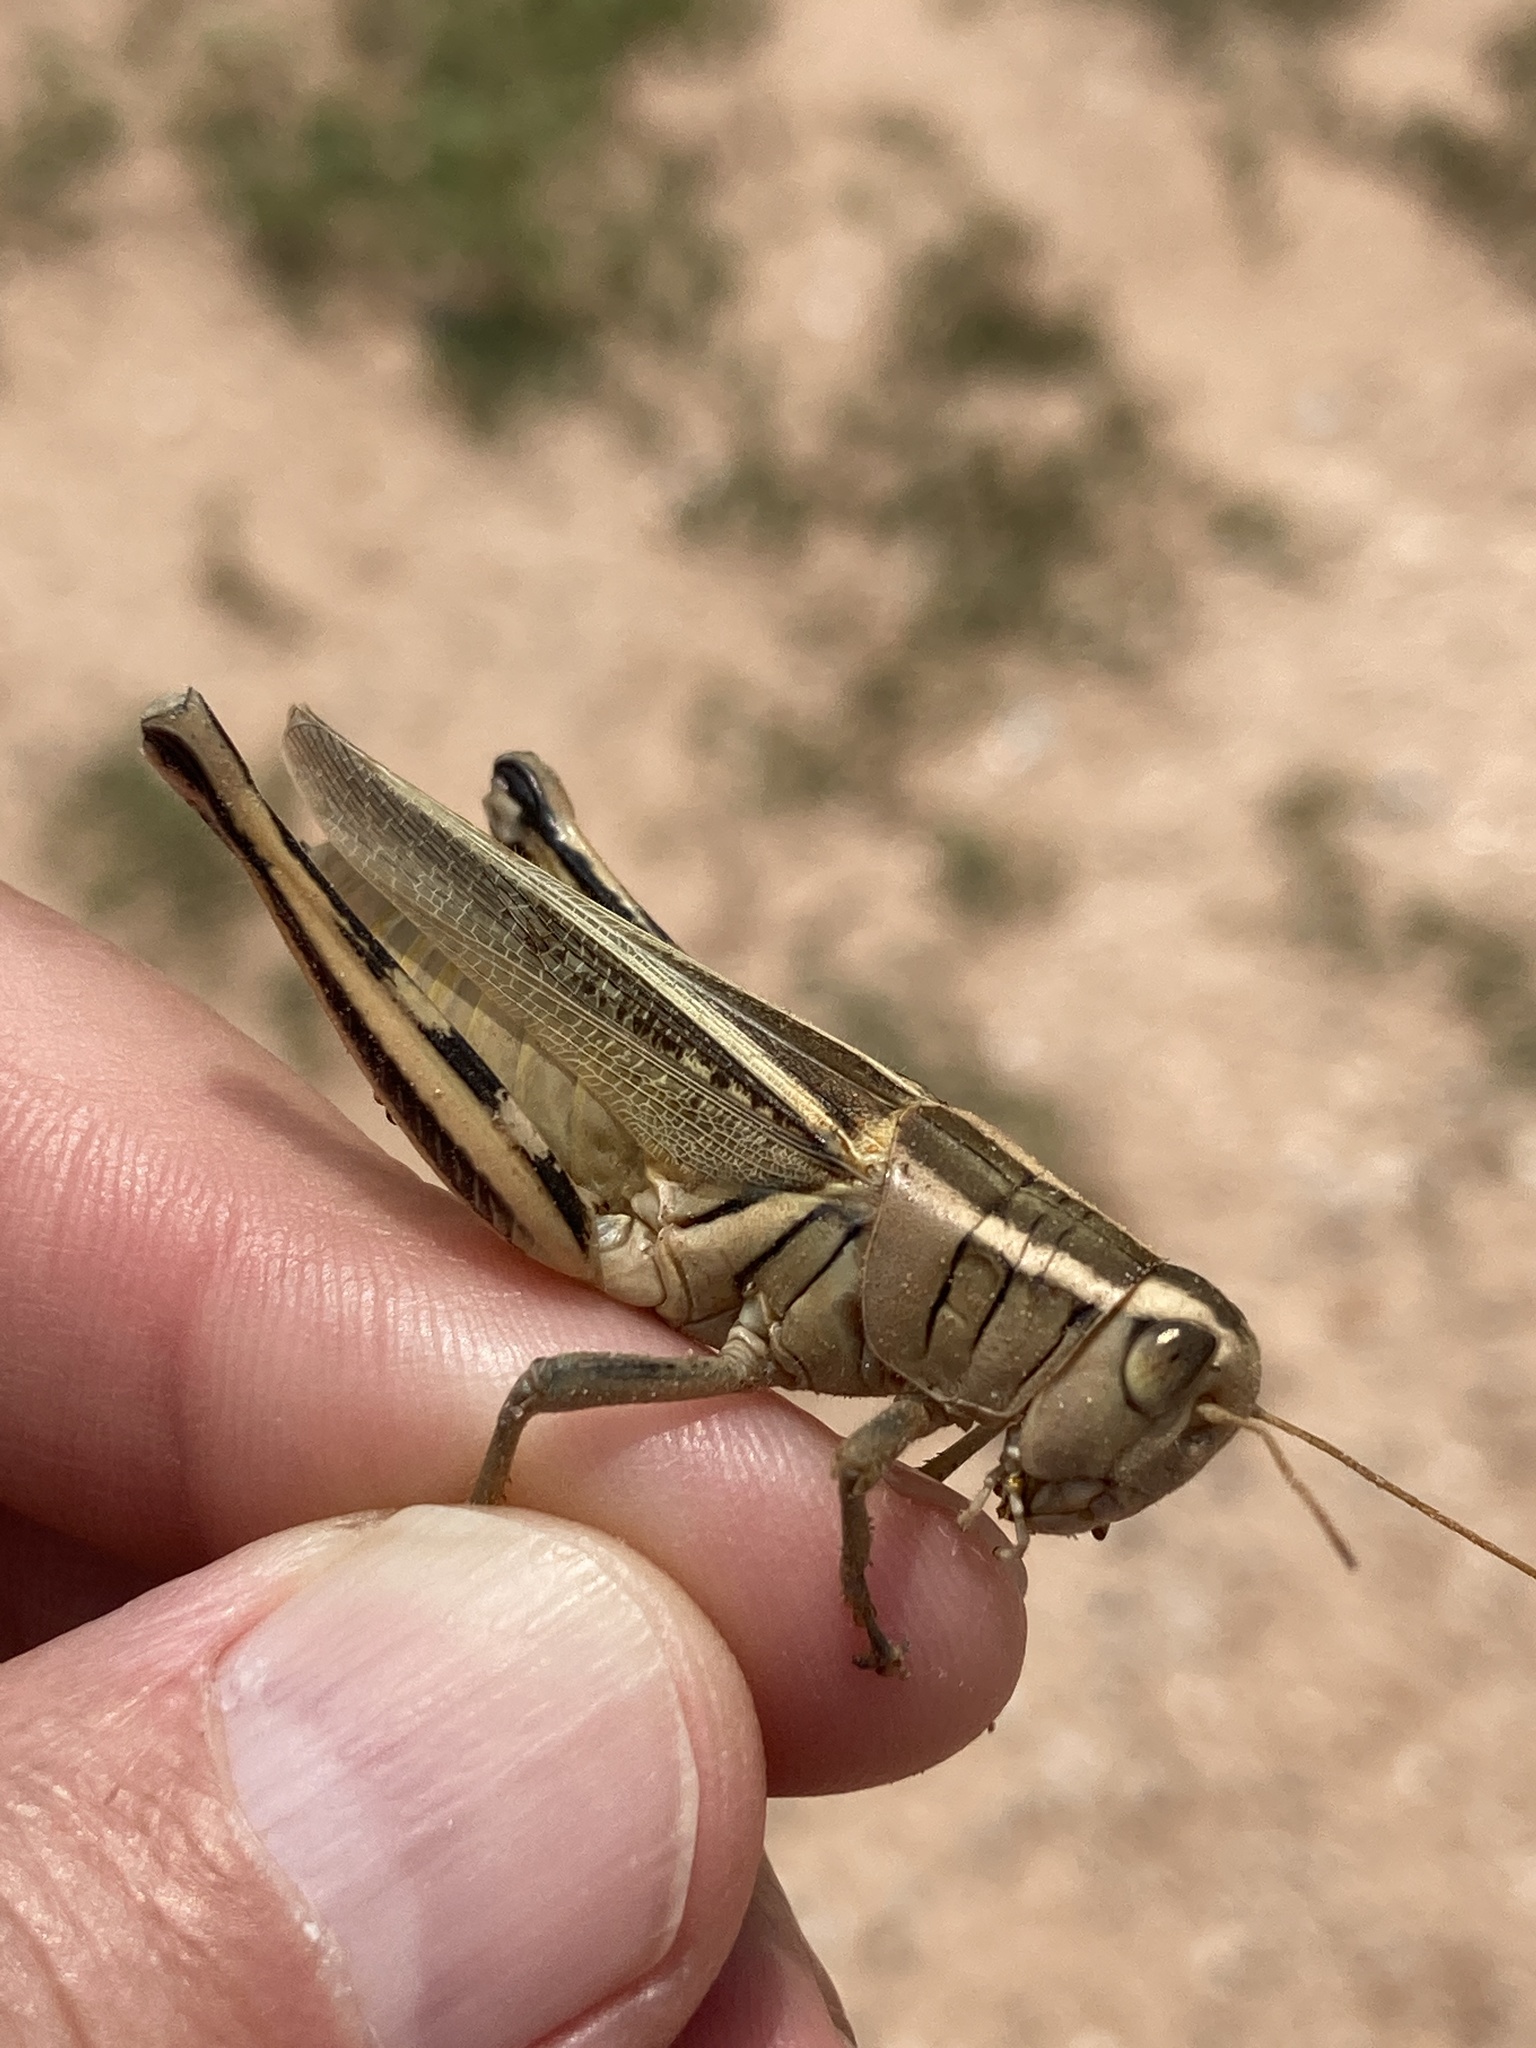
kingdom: Animalia
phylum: Arthropoda
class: Insecta
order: Orthoptera
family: Acrididae
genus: Melanoplus
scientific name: Melanoplus bivittatus
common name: Two-striped grasshopper
